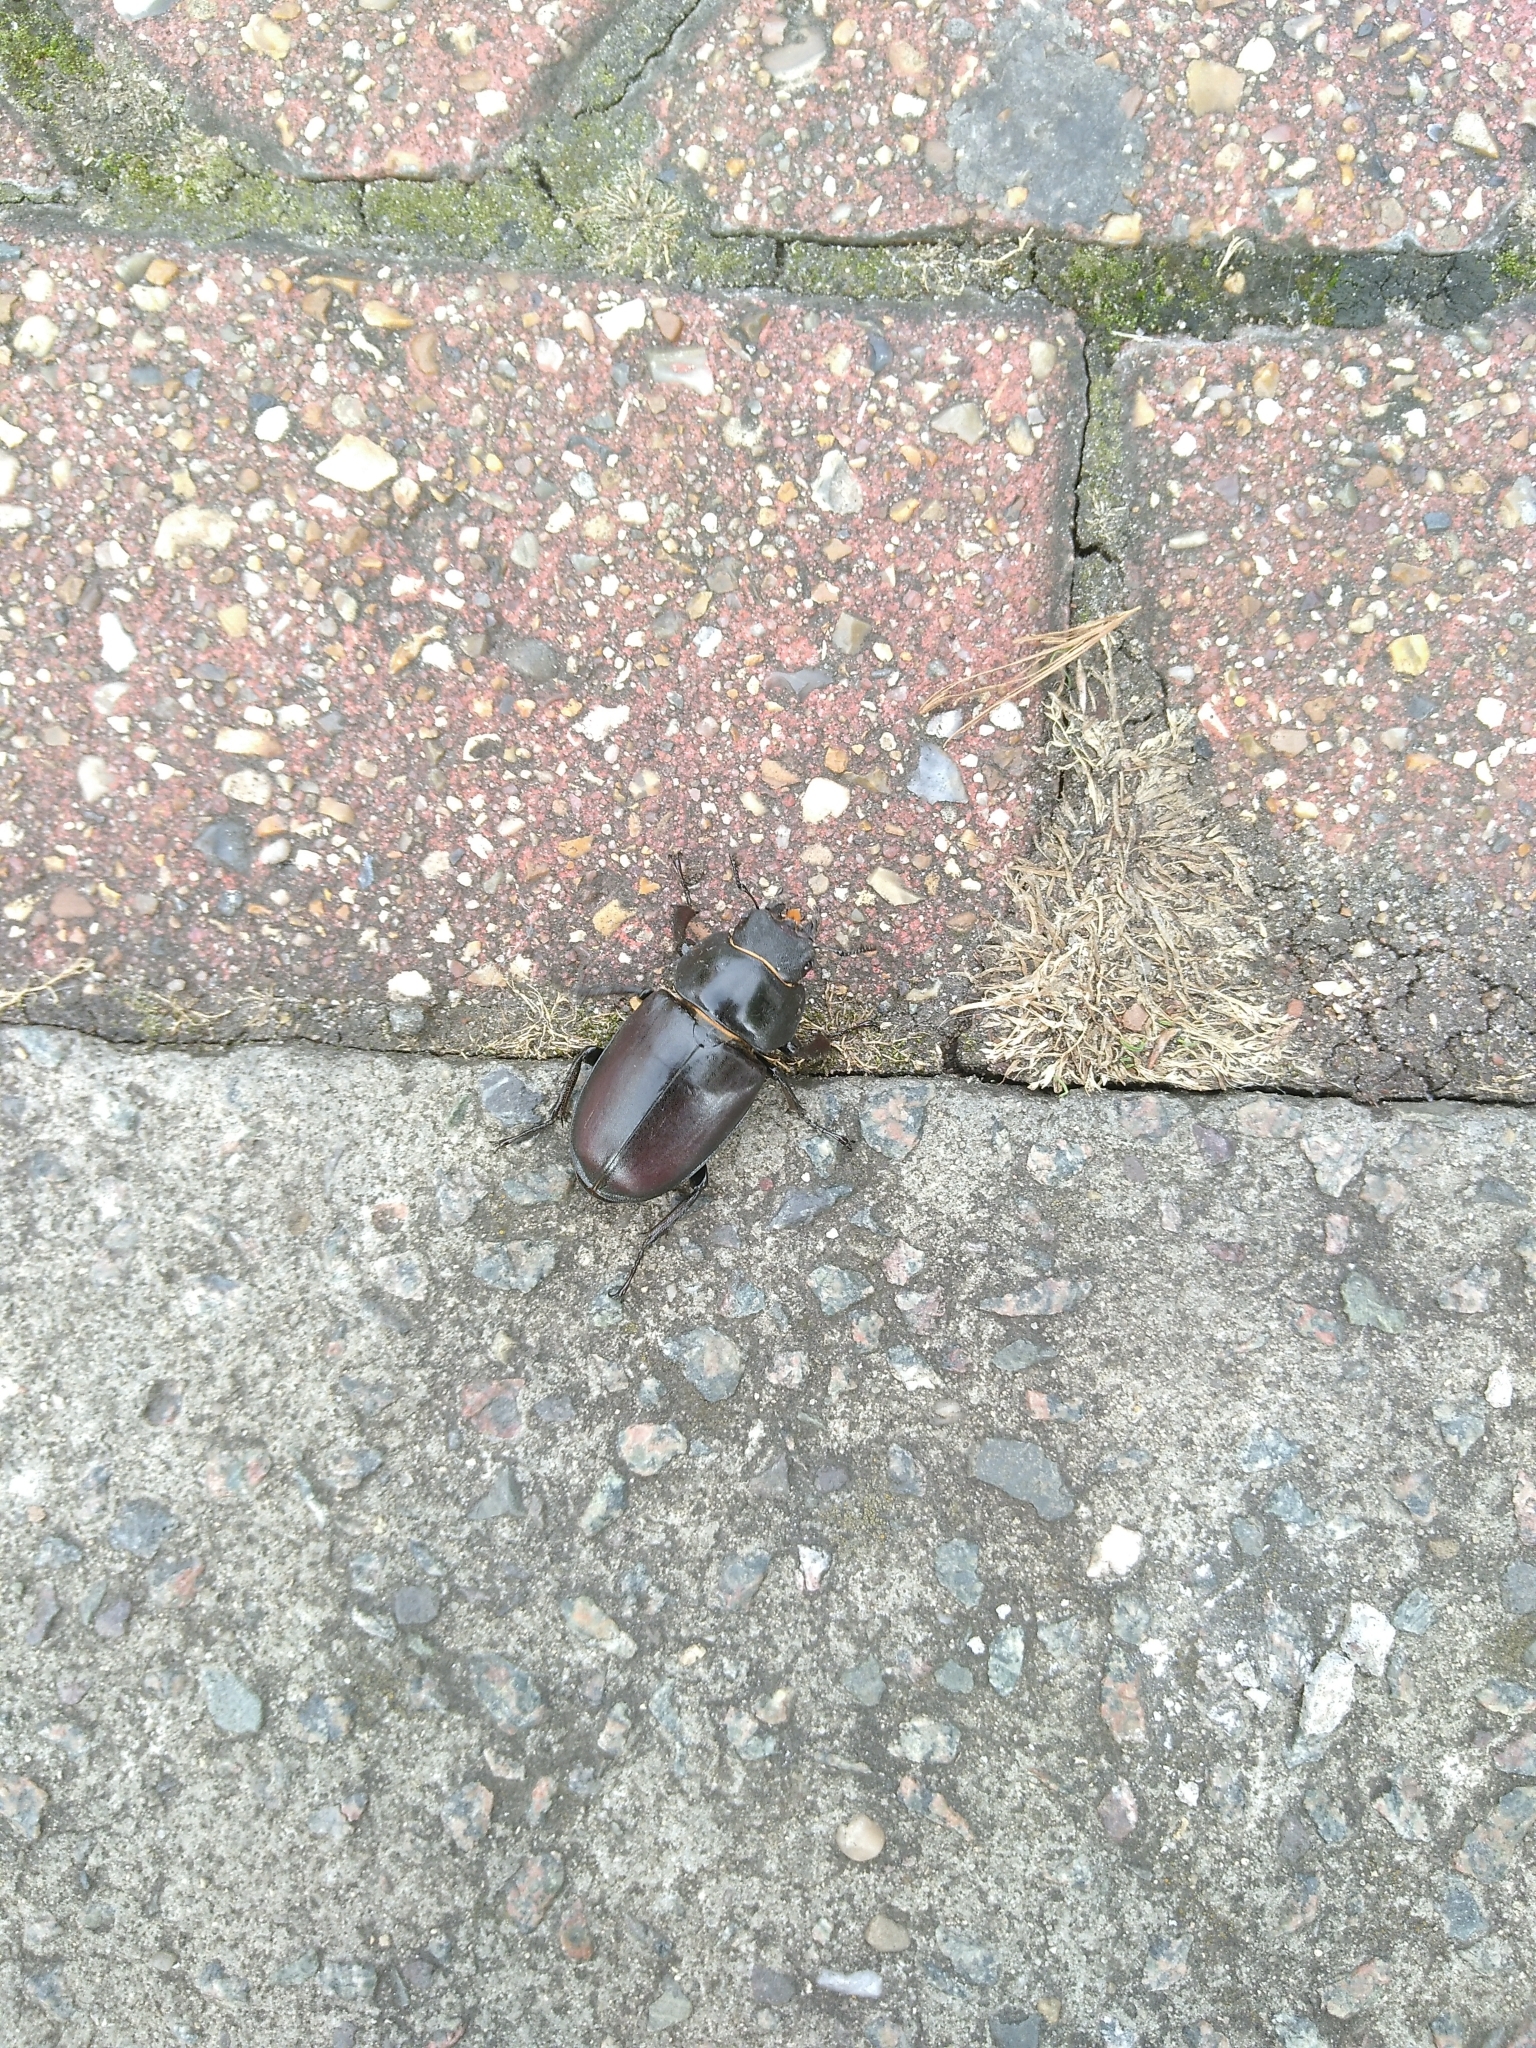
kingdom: Animalia
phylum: Arthropoda
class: Insecta
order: Coleoptera
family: Lucanidae
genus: Lucanus
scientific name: Lucanus cervus
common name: Stag beetle
